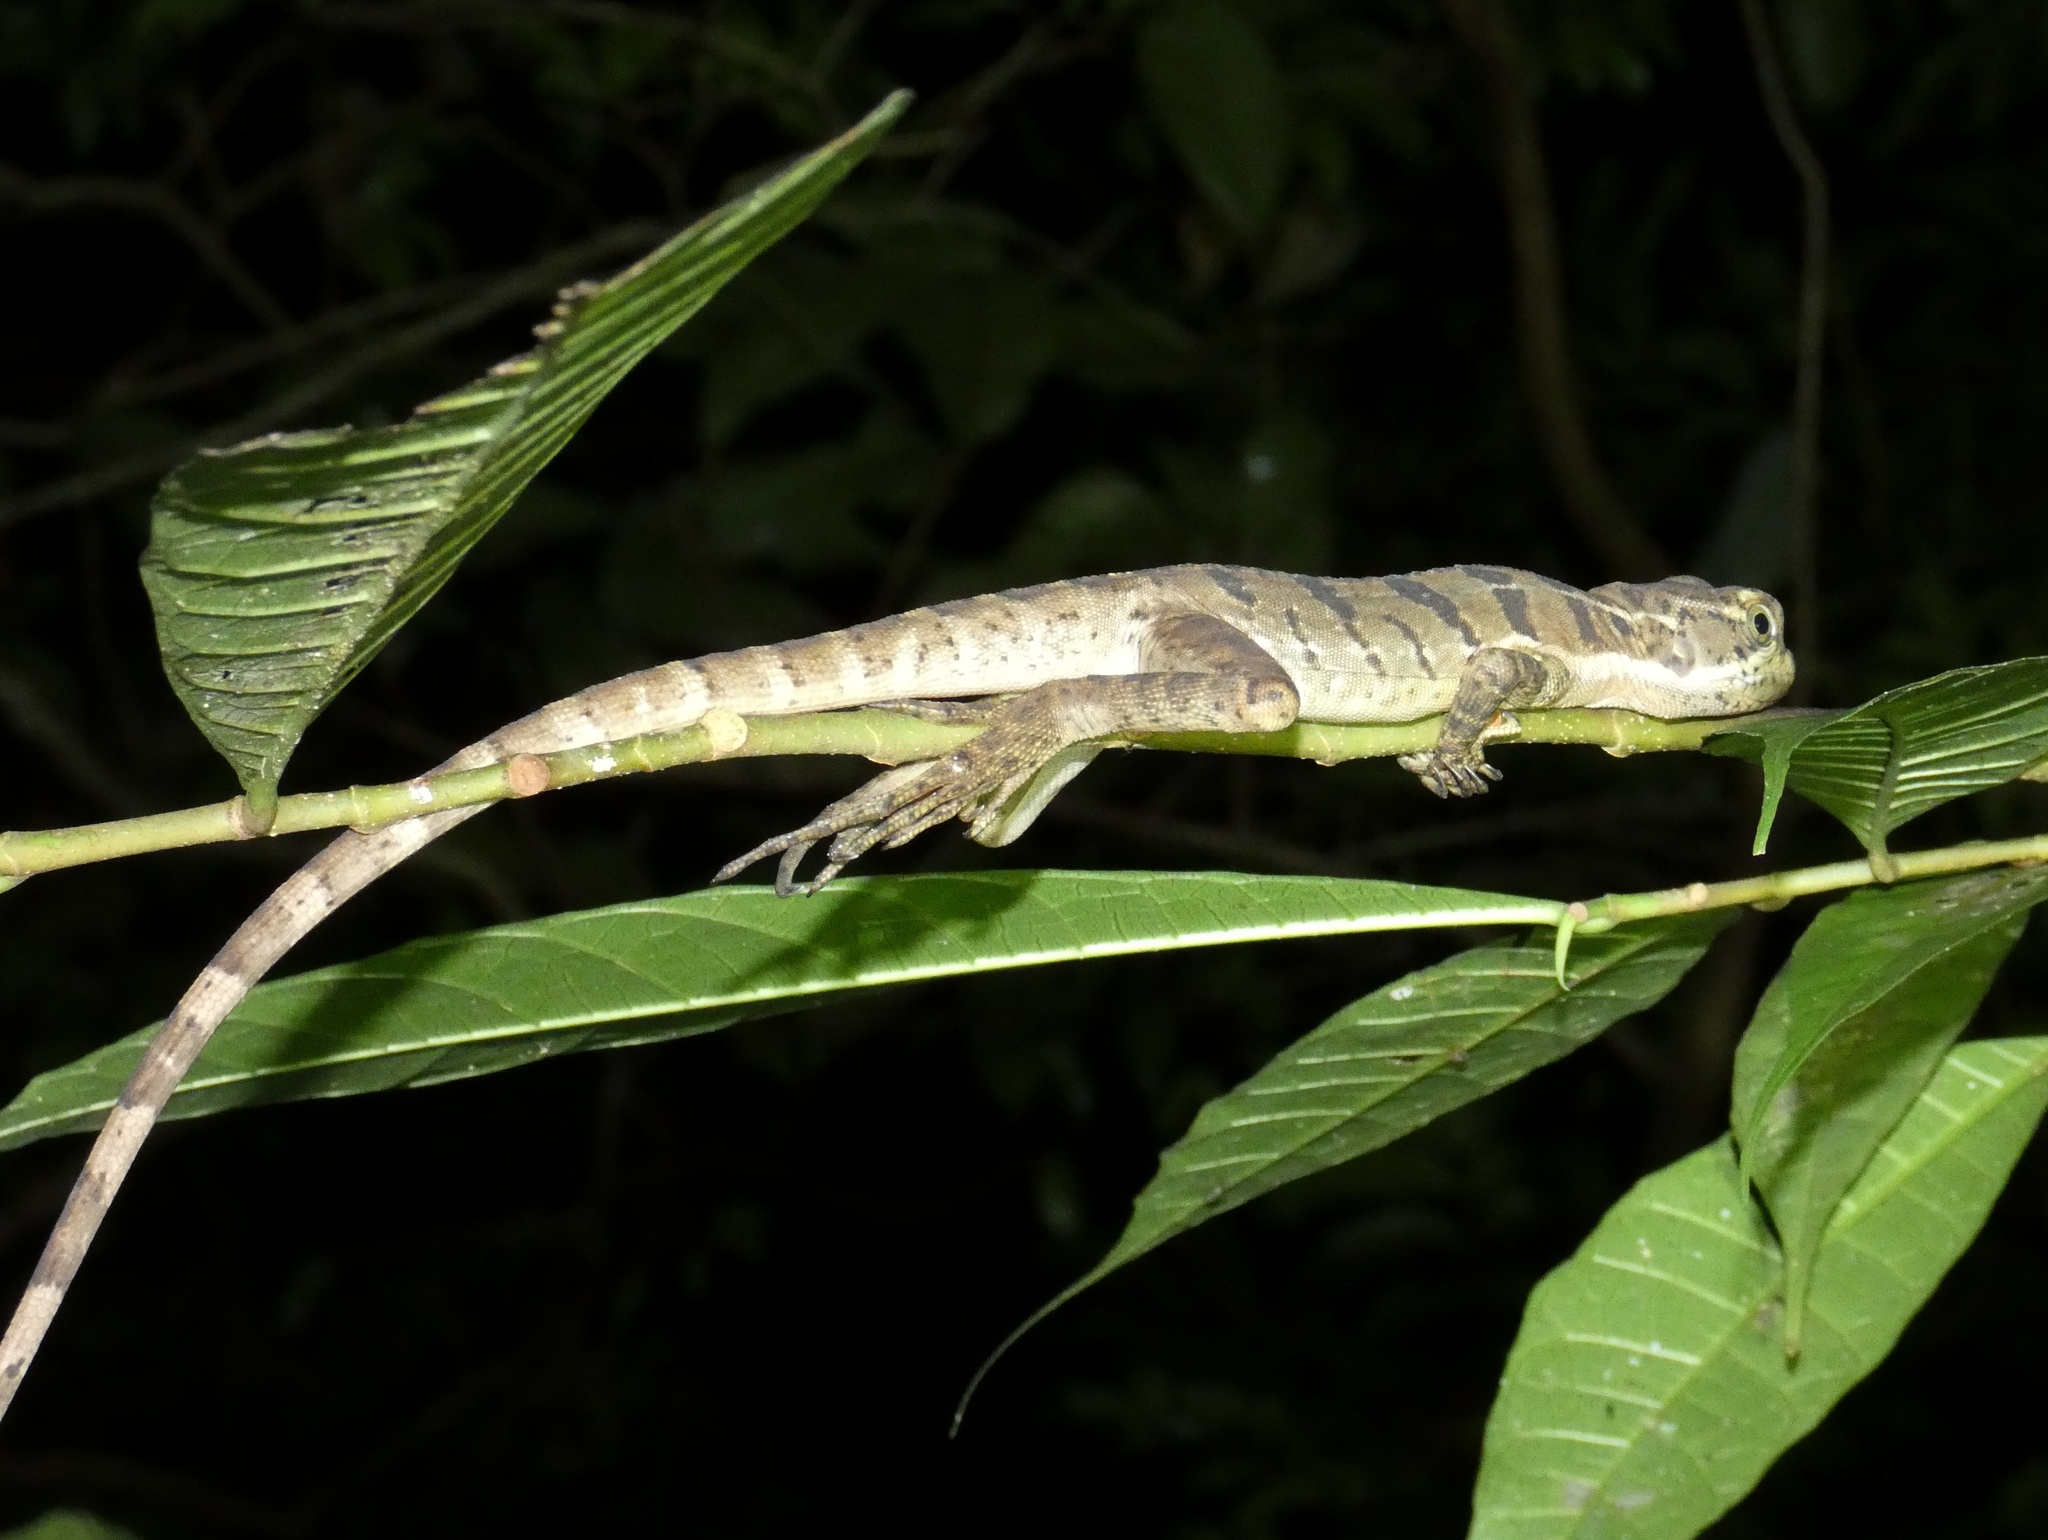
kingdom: Animalia
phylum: Chordata
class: Squamata
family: Corytophanidae
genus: Basiliscus
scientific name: Basiliscus basiliscus
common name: Common basilisk
